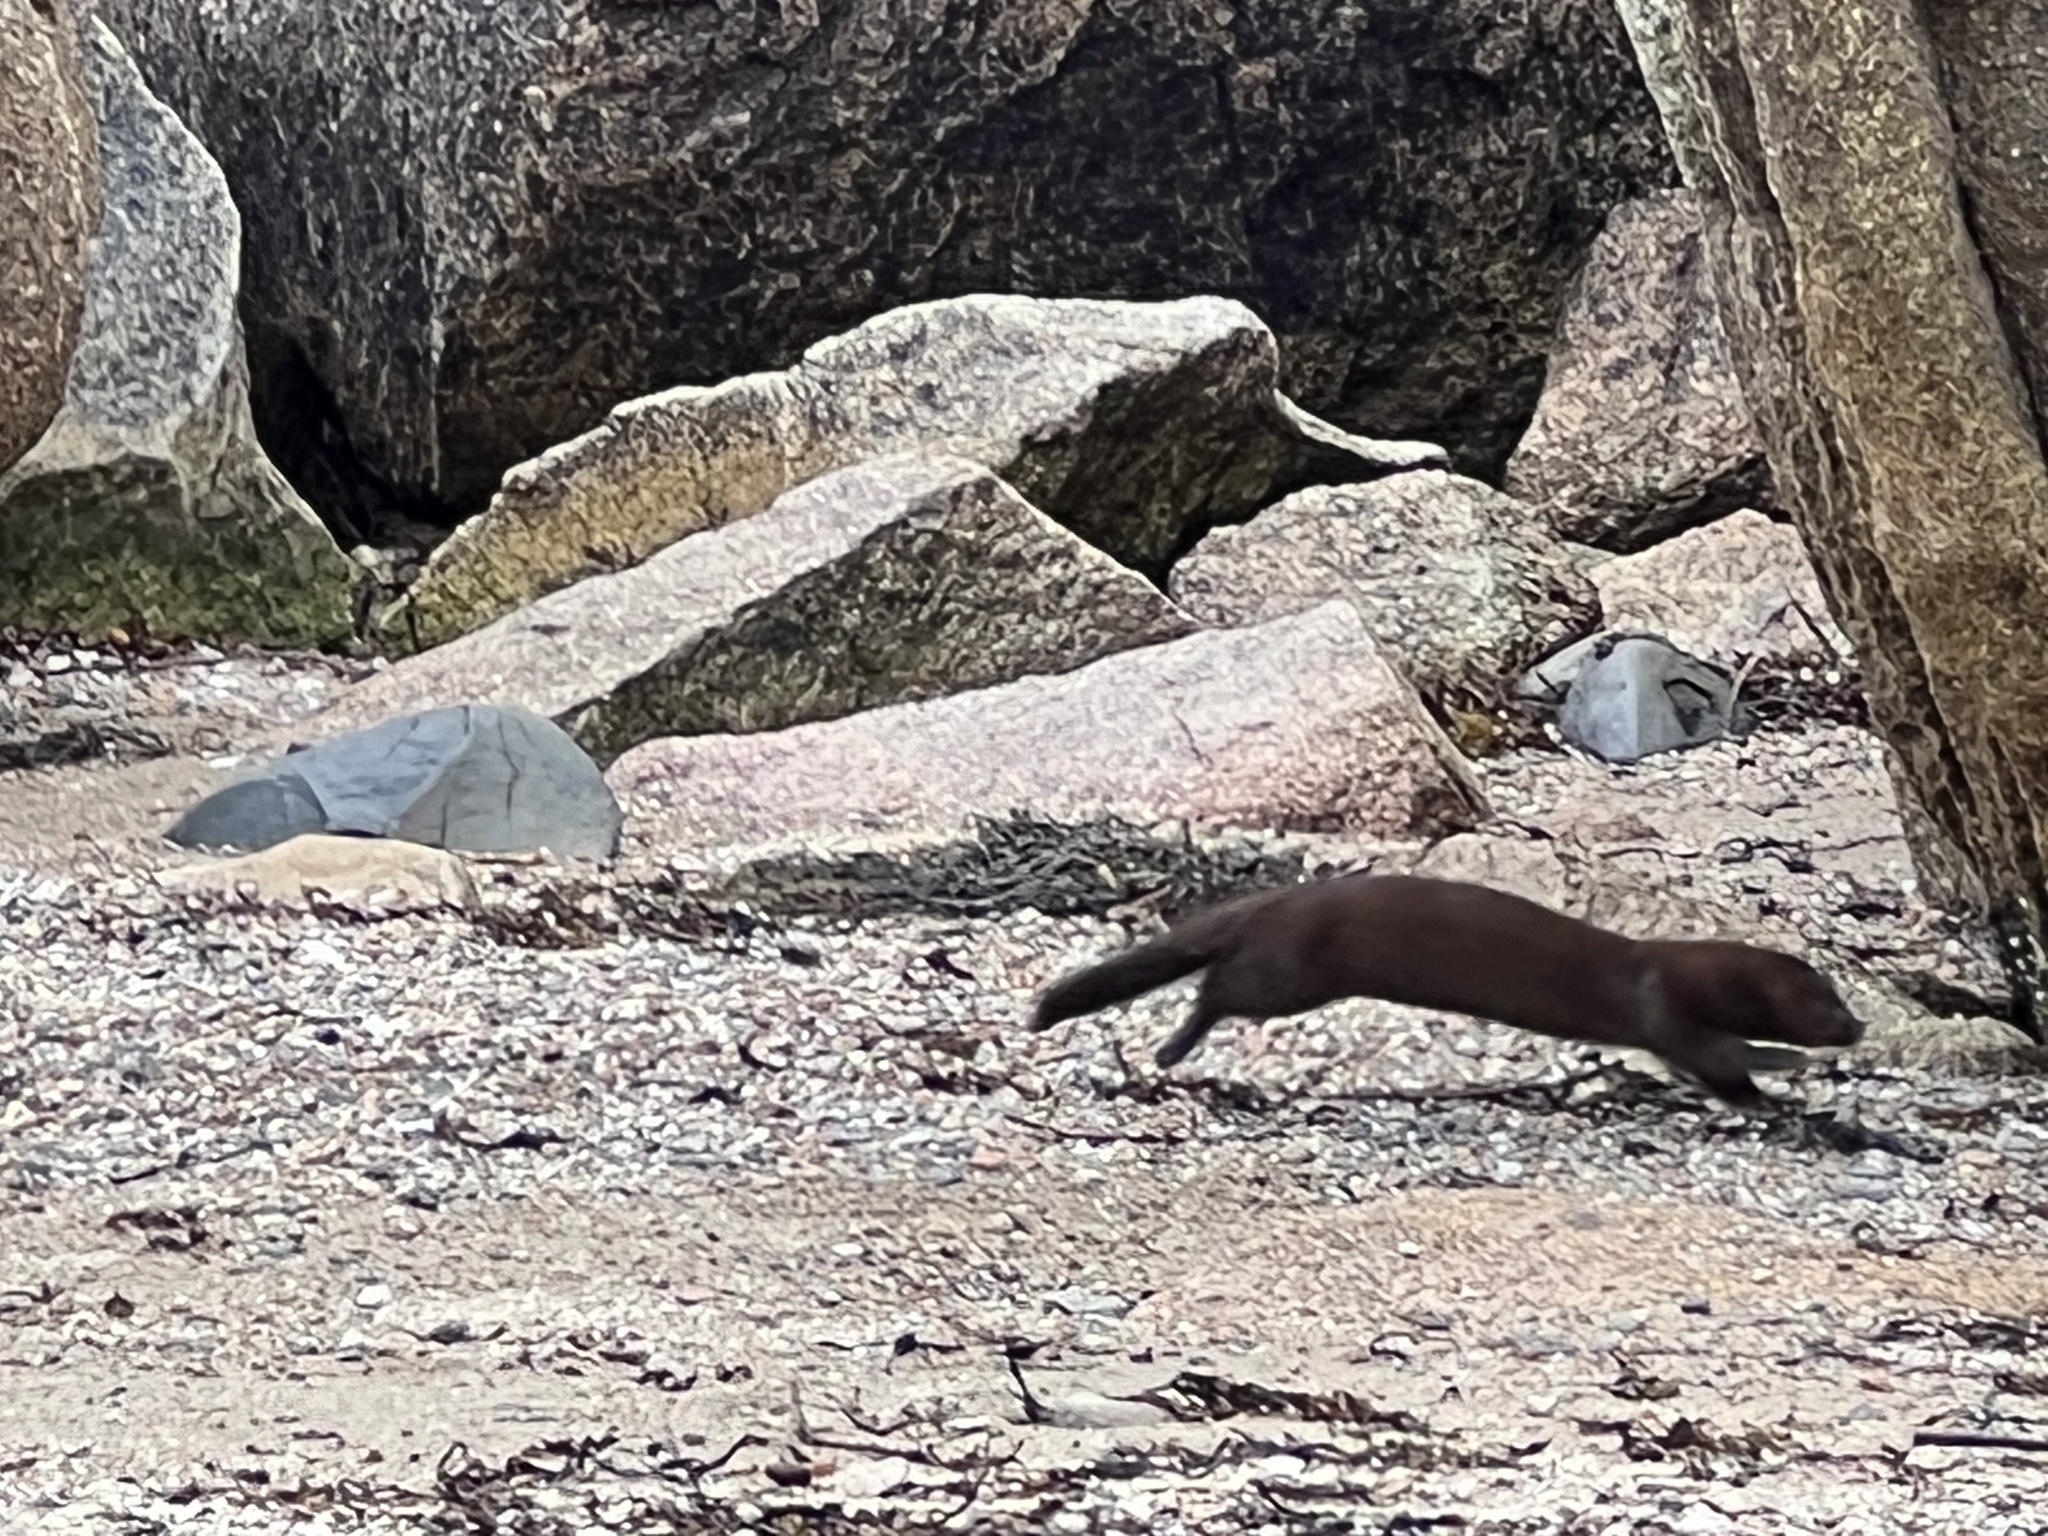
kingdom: Animalia
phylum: Chordata
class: Mammalia
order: Carnivora
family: Mustelidae
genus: Mustela
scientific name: Mustela
